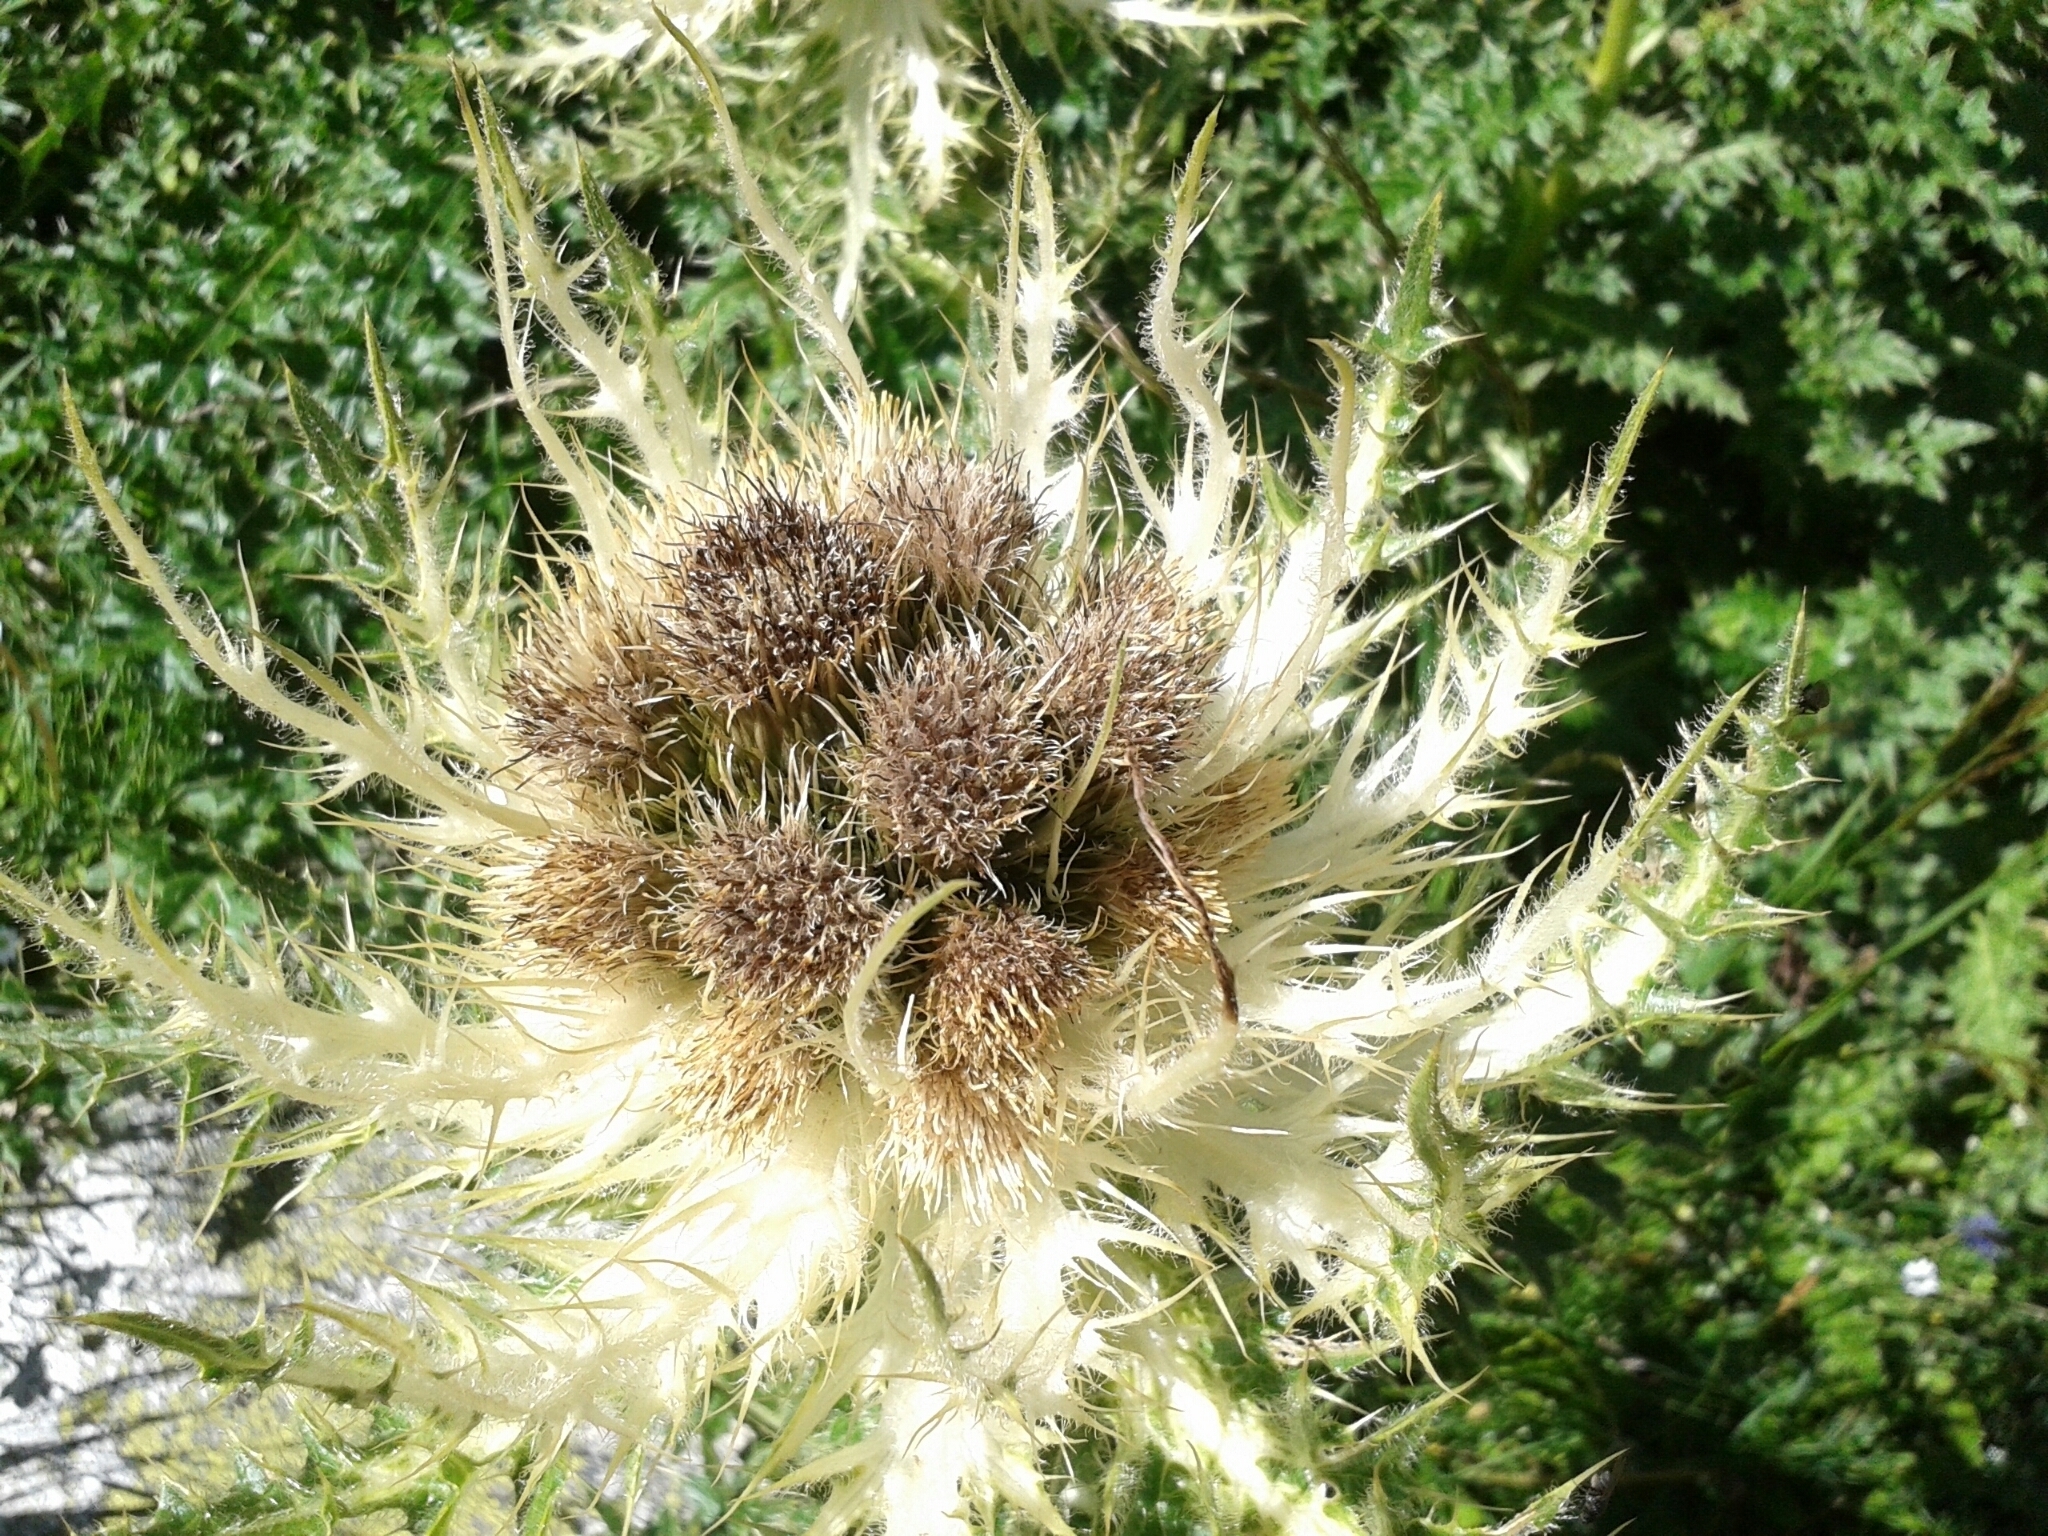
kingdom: Plantae
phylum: Tracheophyta
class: Magnoliopsida
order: Asterales
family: Asteraceae
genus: Cirsium
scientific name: Cirsium spinosissimum
